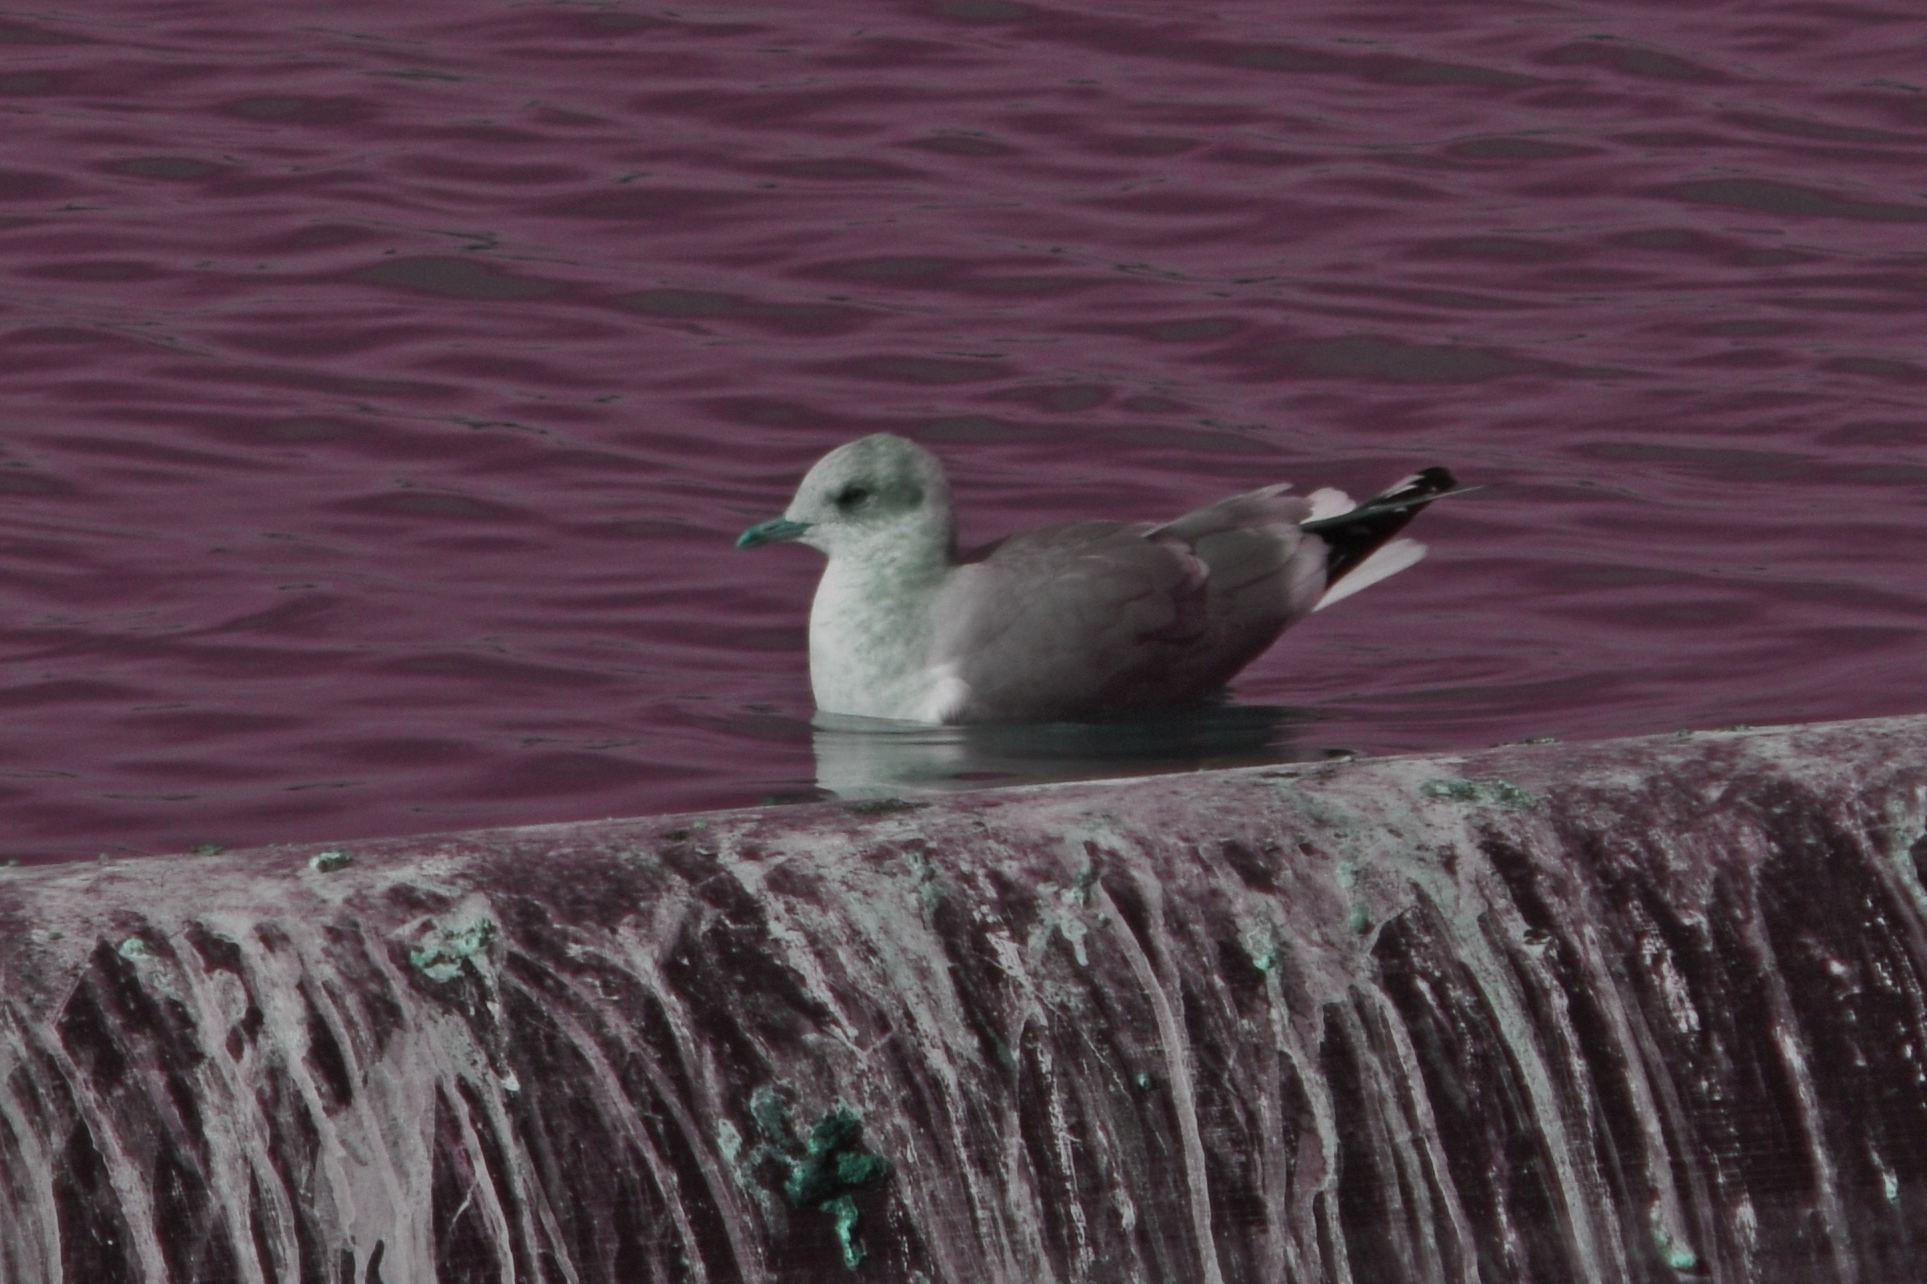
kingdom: Animalia
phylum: Chordata
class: Aves
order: Charadriiformes
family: Laridae
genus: Larus
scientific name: Larus brachyrhynchus
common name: Short-billed gull
